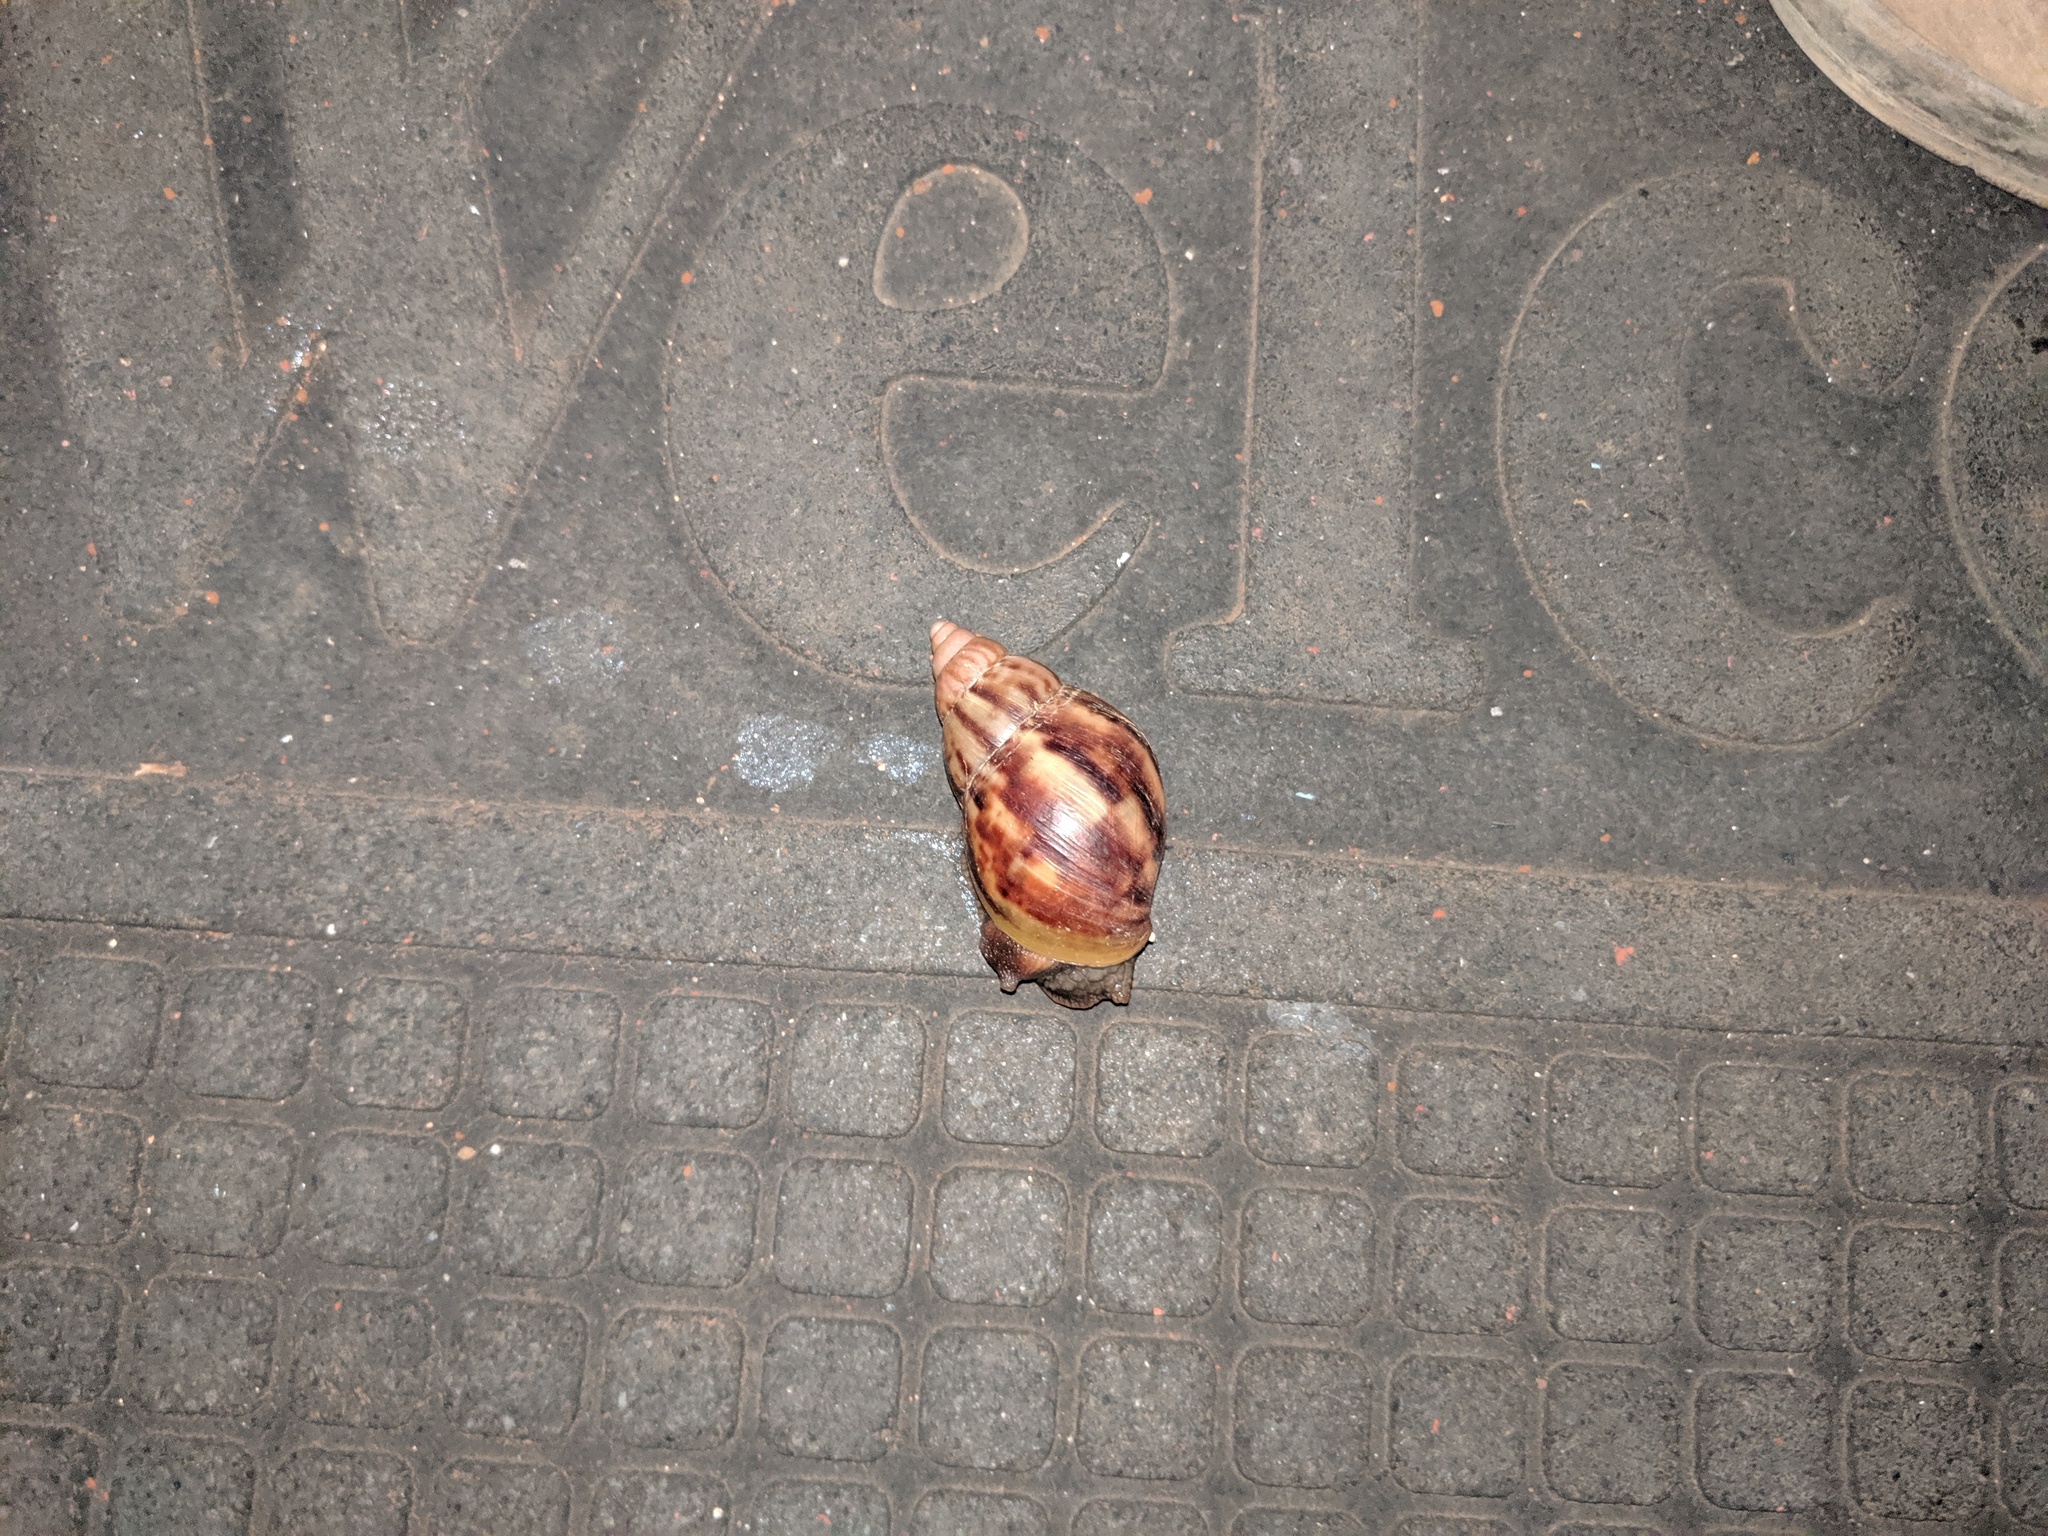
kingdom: Animalia
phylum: Mollusca
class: Gastropoda
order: Stylommatophora
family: Achatinidae
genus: Lissachatina
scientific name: Lissachatina fulica
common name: Giant african snail
